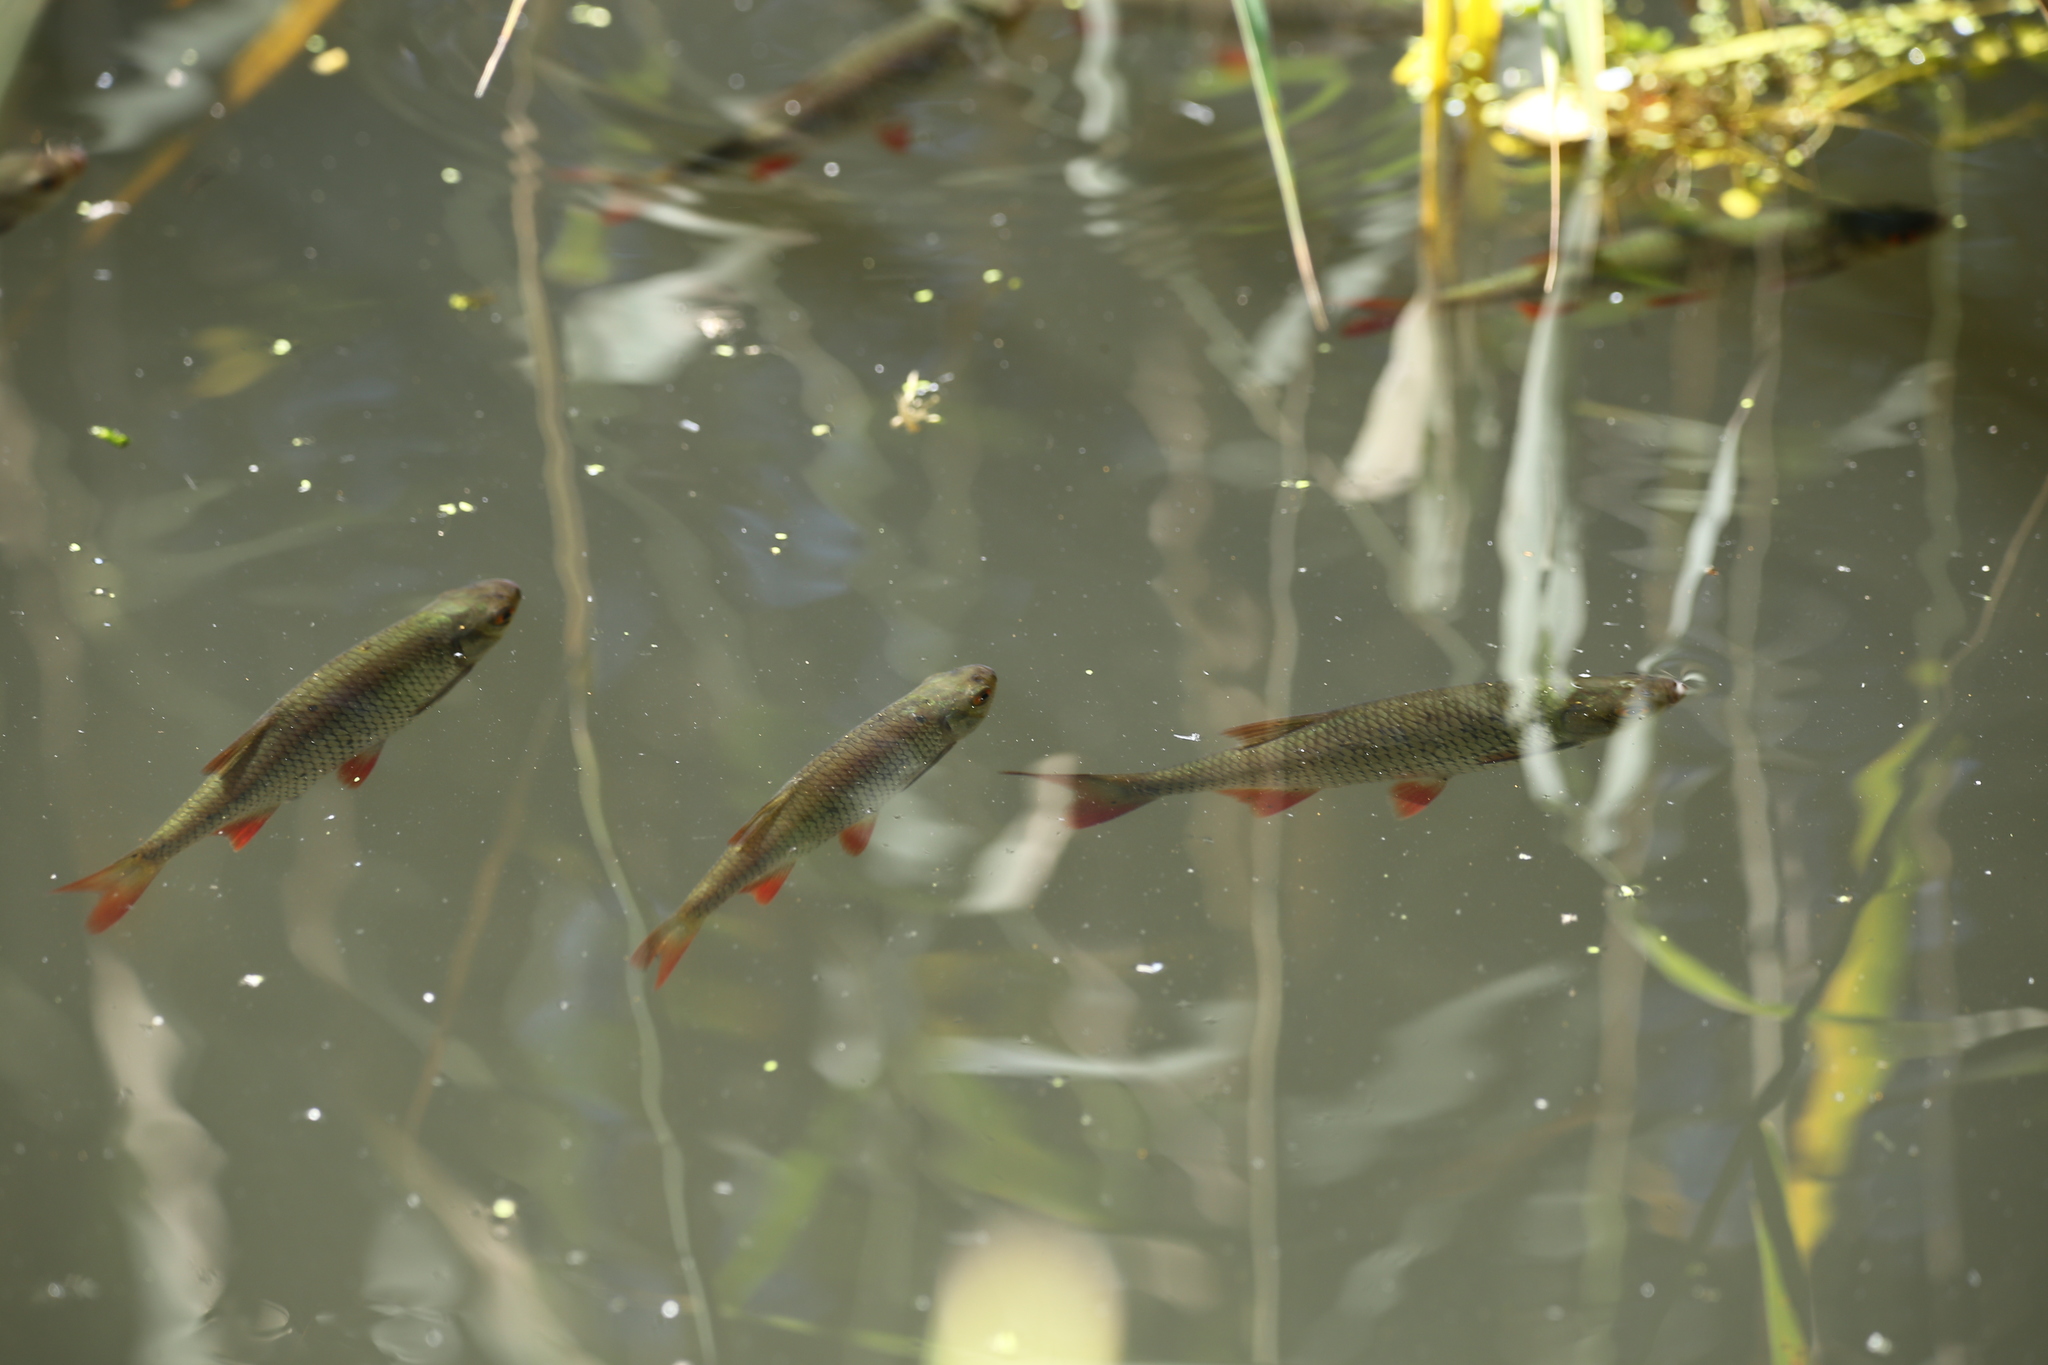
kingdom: Animalia
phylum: Chordata
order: Cypriniformes
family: Cyprinidae
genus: Scardinius
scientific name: Scardinius erythrophthalmus
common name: Rudd
